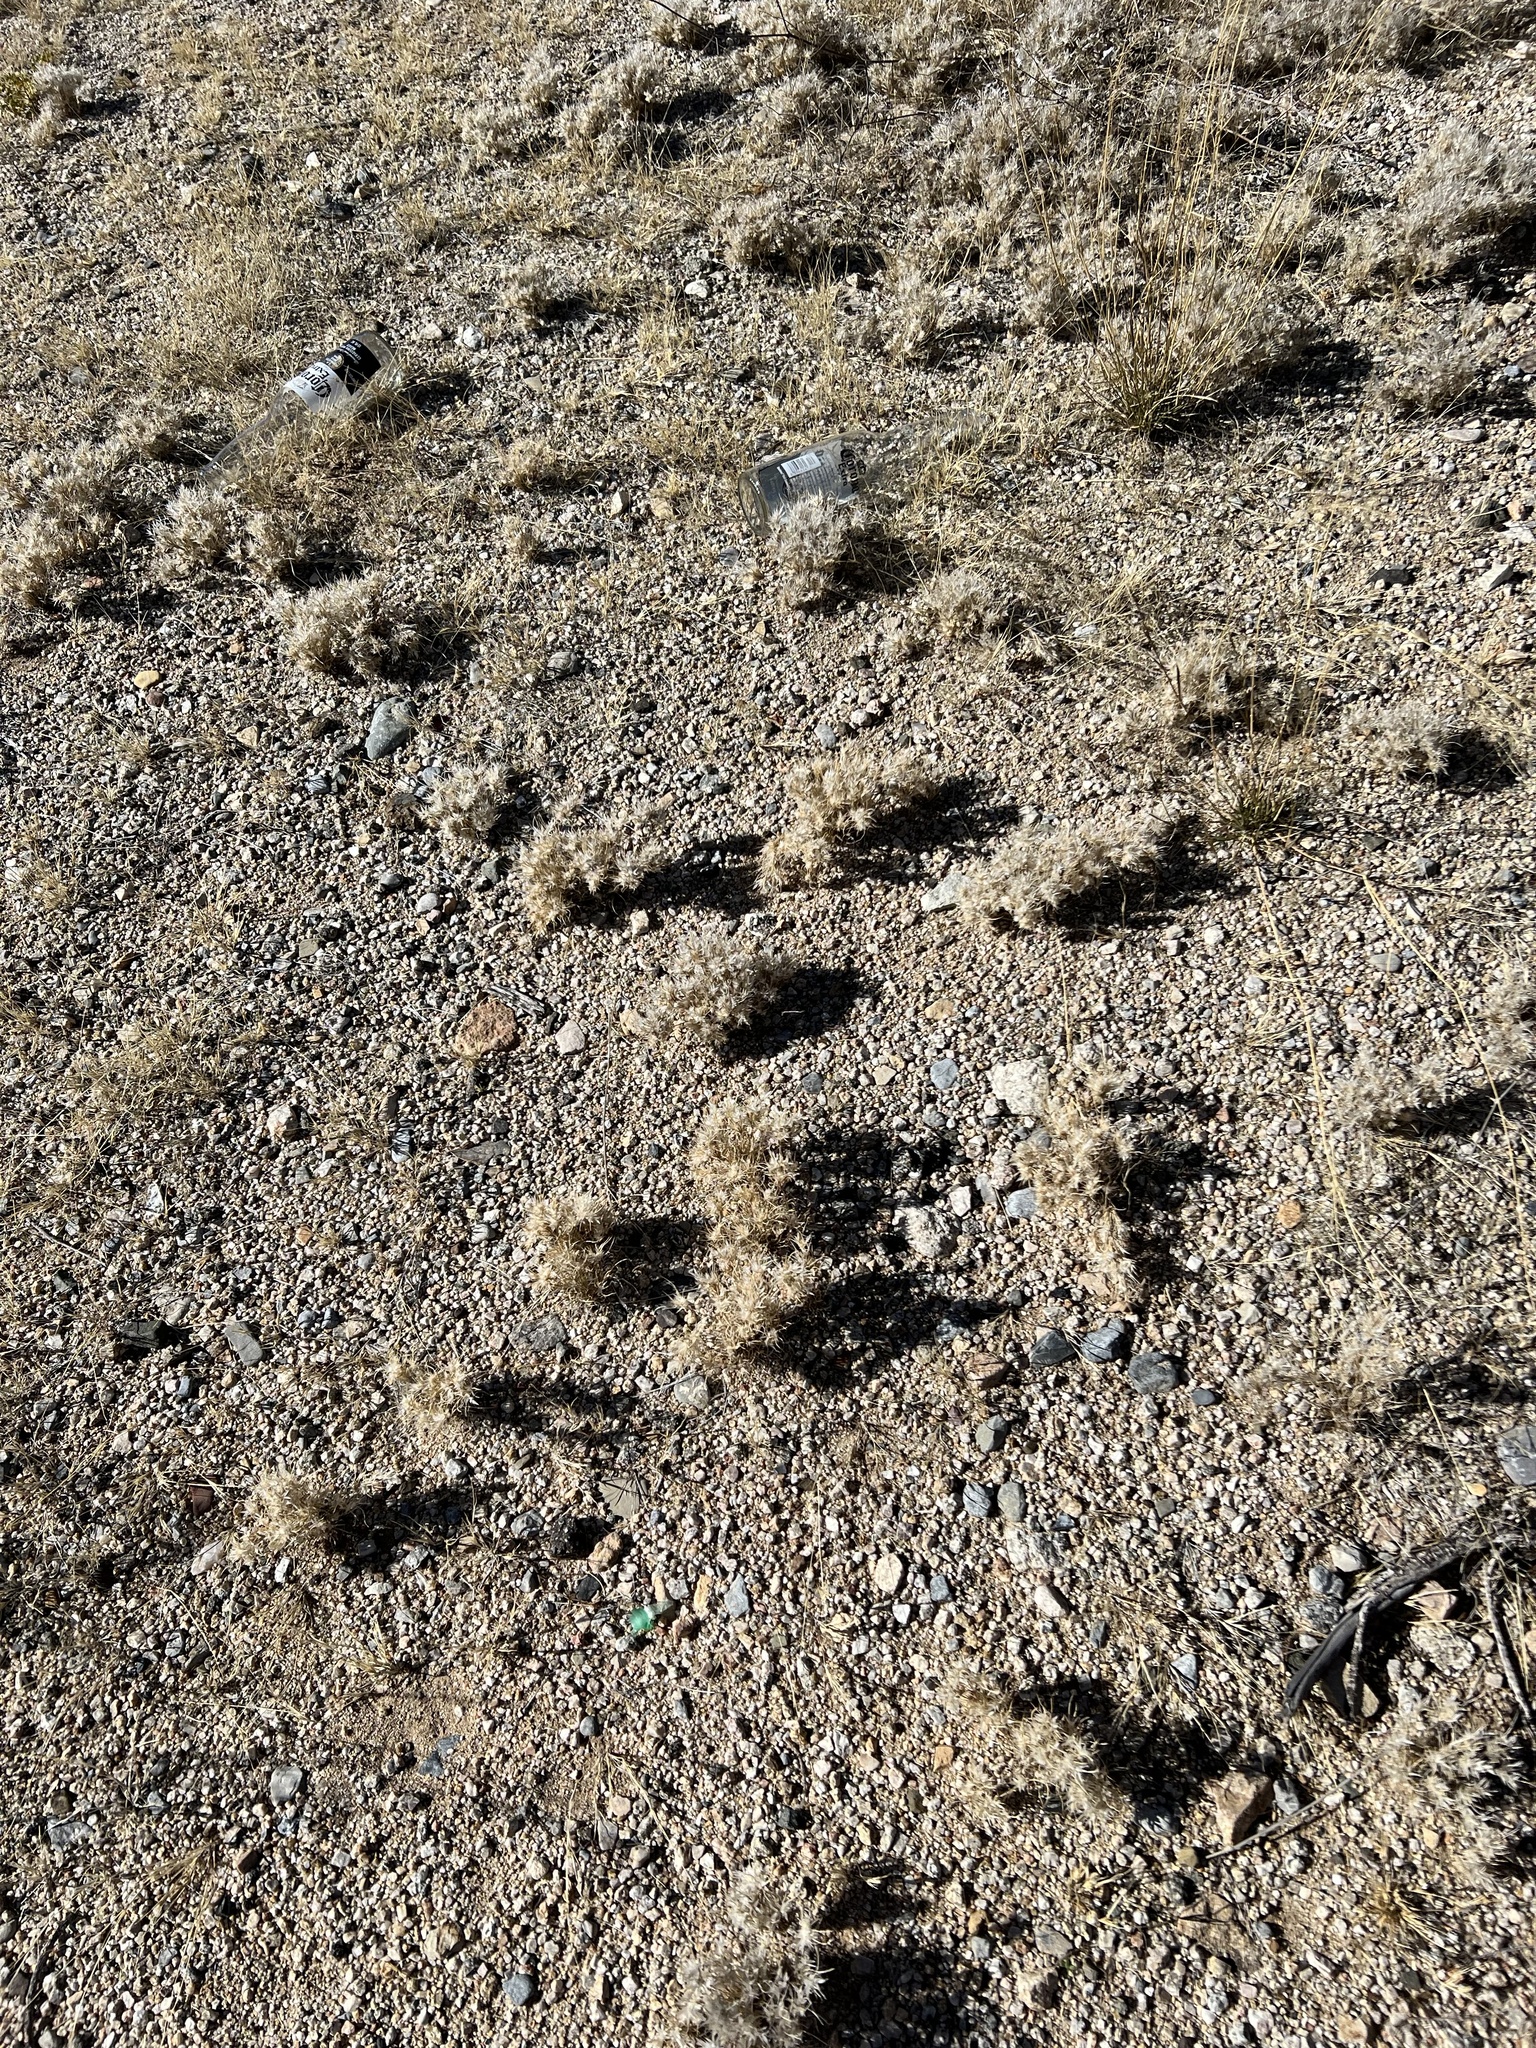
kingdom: Plantae
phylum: Tracheophyta
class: Liliopsida
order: Poales
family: Poaceae
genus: Dasyochloa
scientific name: Dasyochloa pulchella
